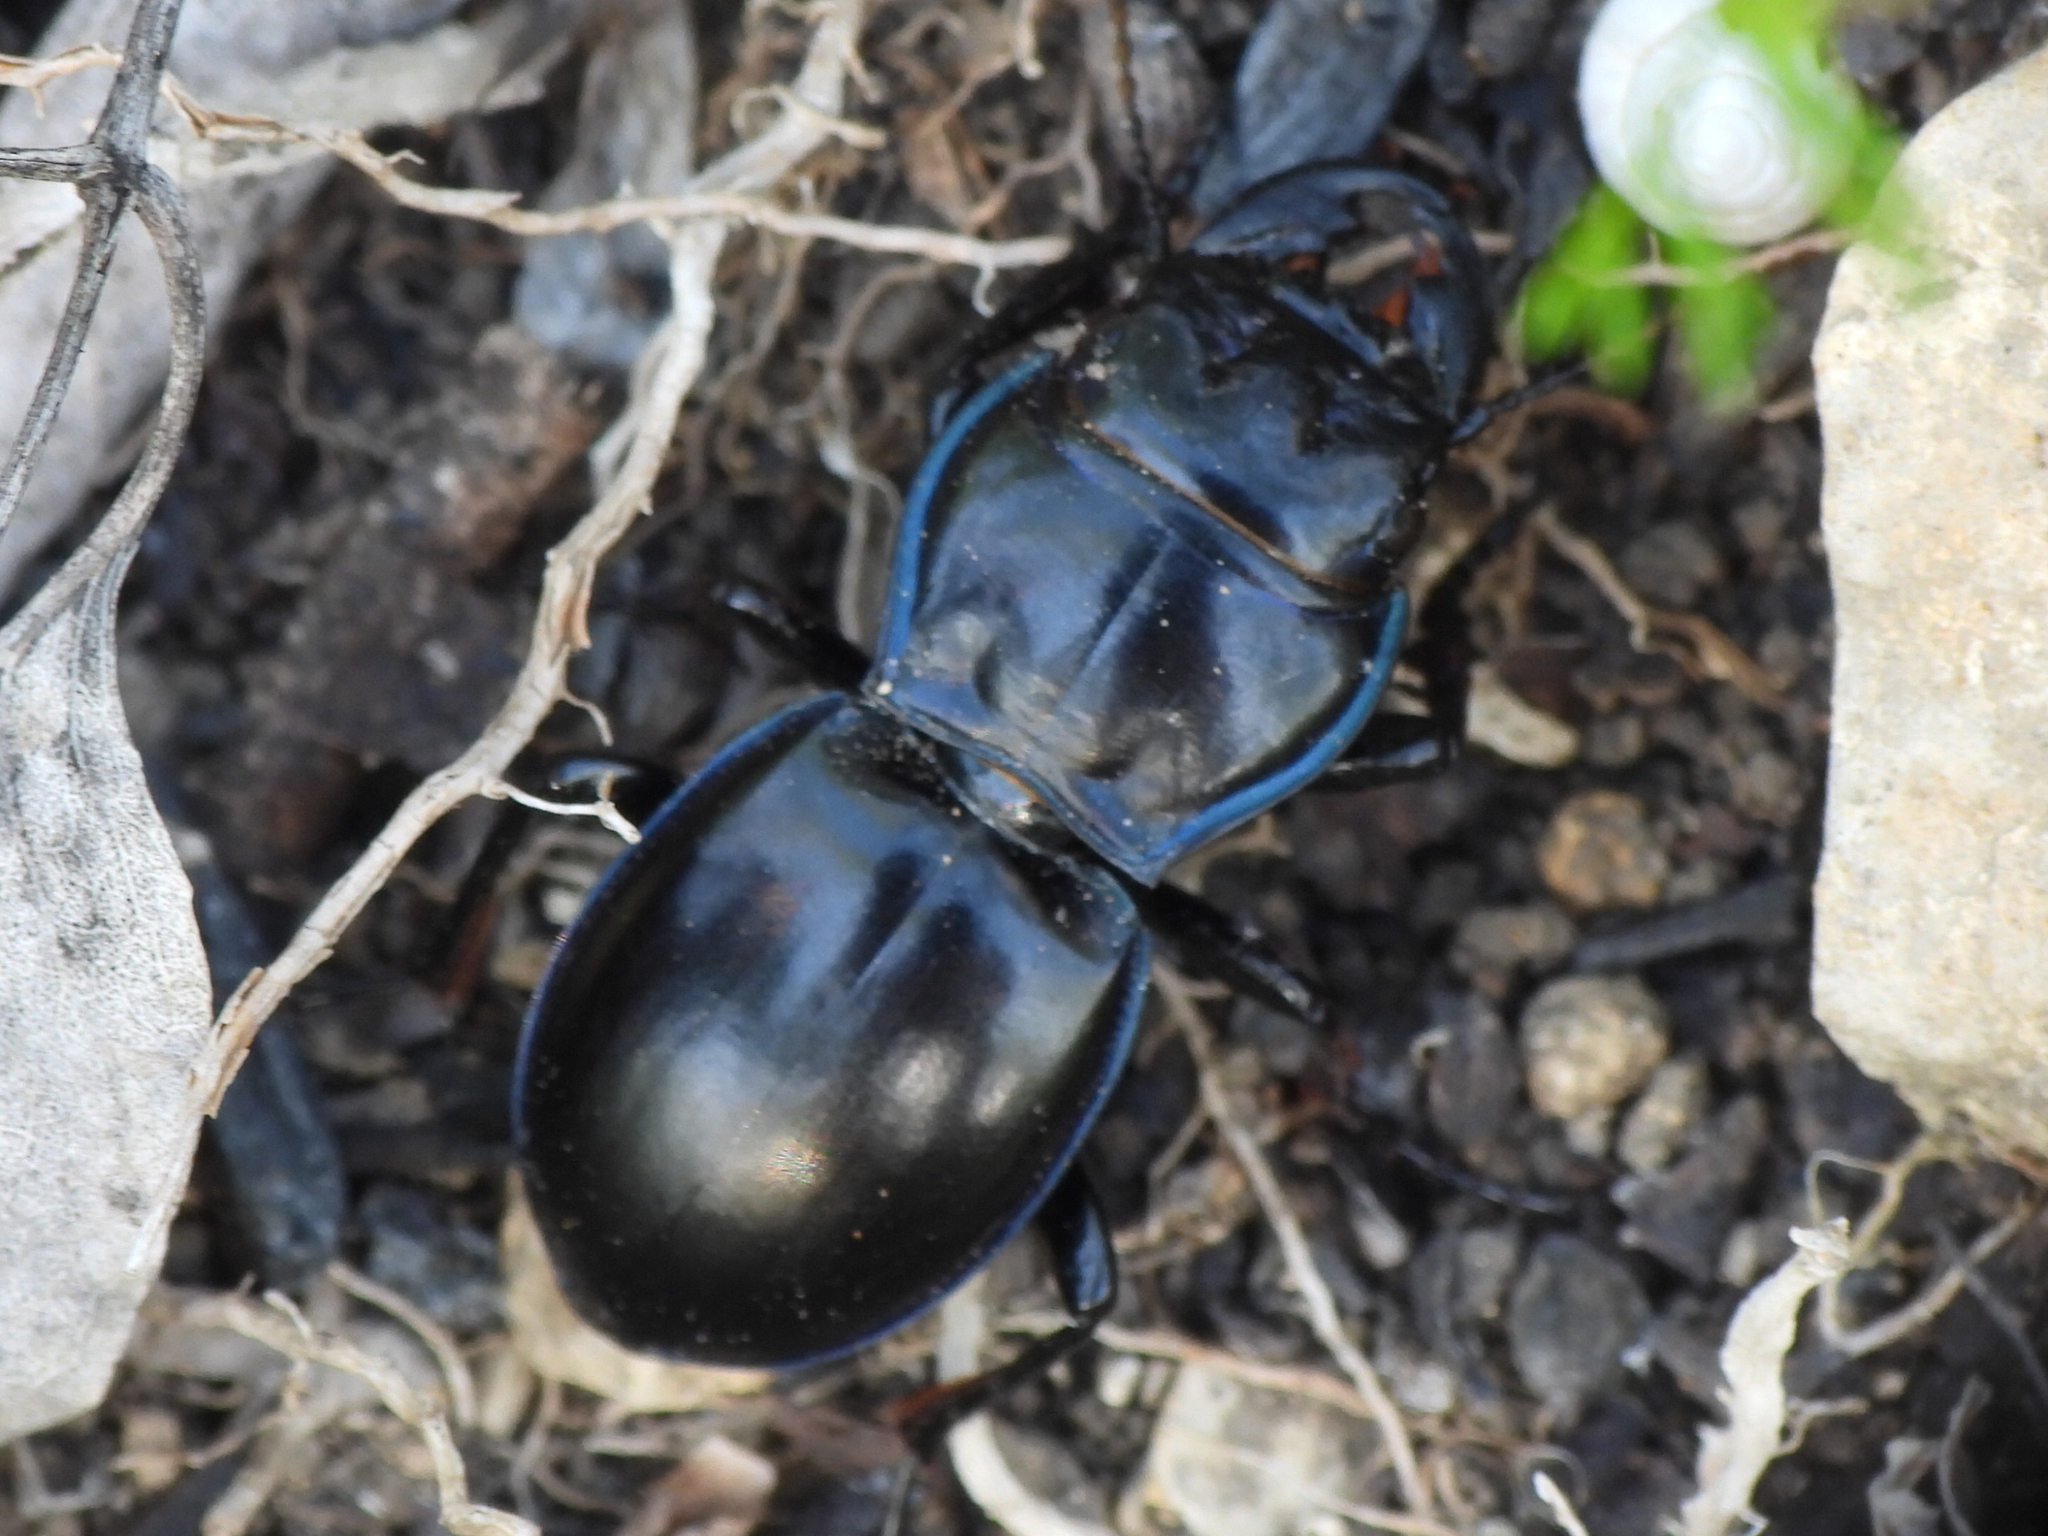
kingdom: Animalia
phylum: Arthropoda
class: Insecta
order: Coleoptera
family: Carabidae
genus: Pasimachus
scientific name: Pasimachus elongatus
